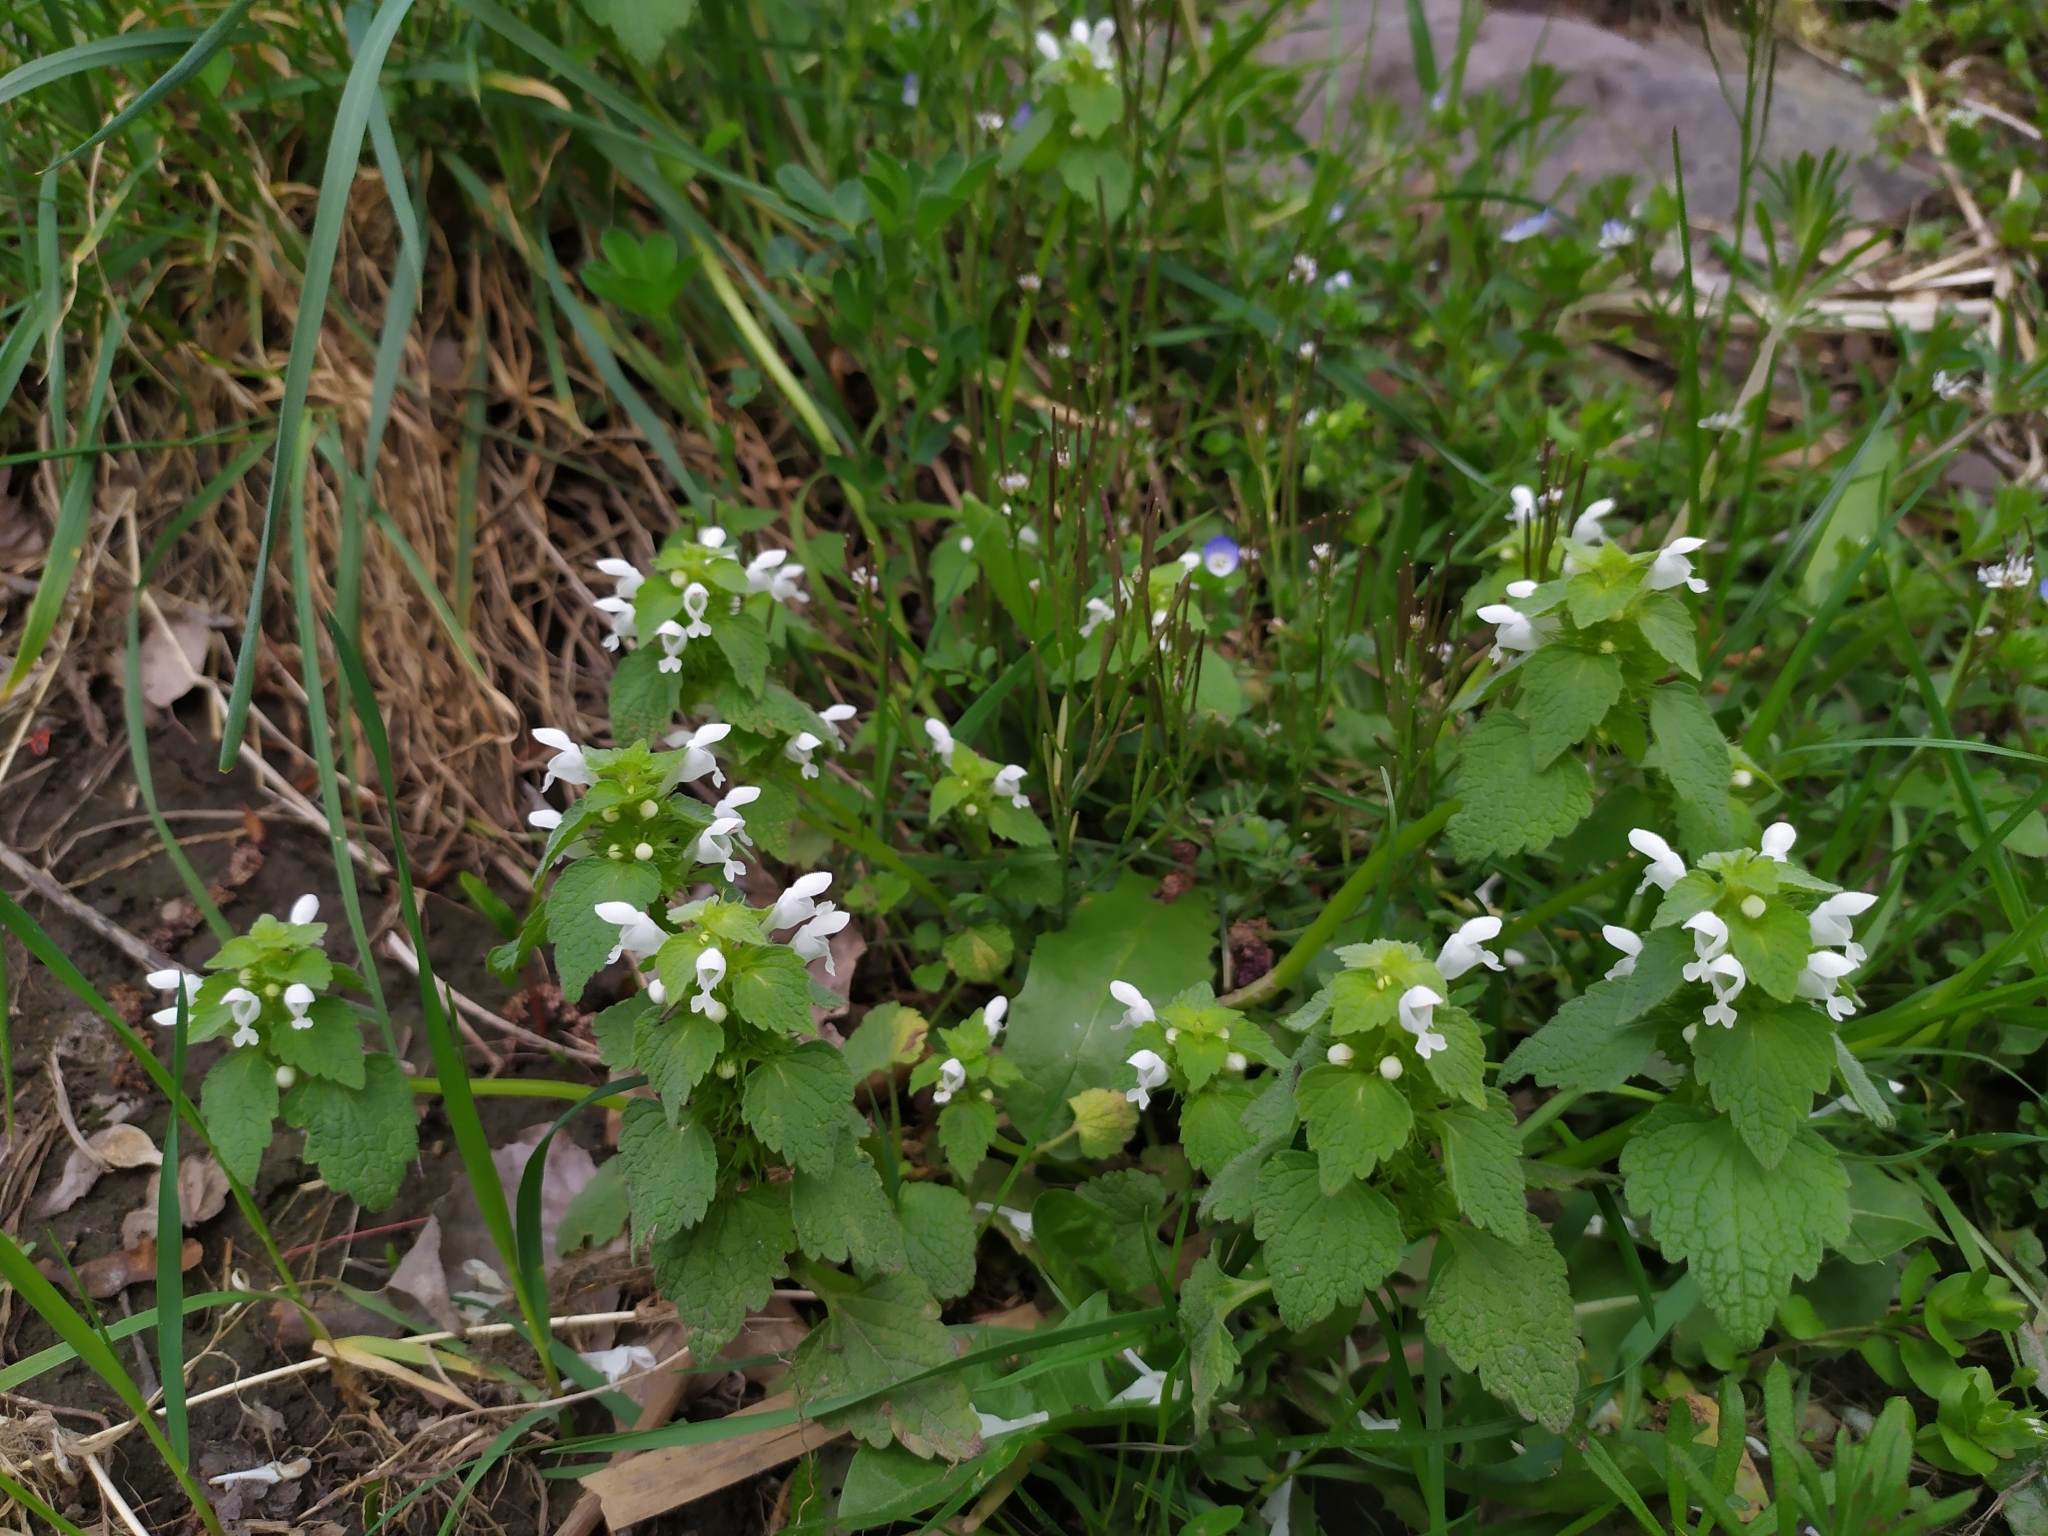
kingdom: Plantae
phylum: Tracheophyta
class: Magnoliopsida
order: Lamiales
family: Lamiaceae
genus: Lamium
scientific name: Lamium purpureum
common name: Red dead-nettle
